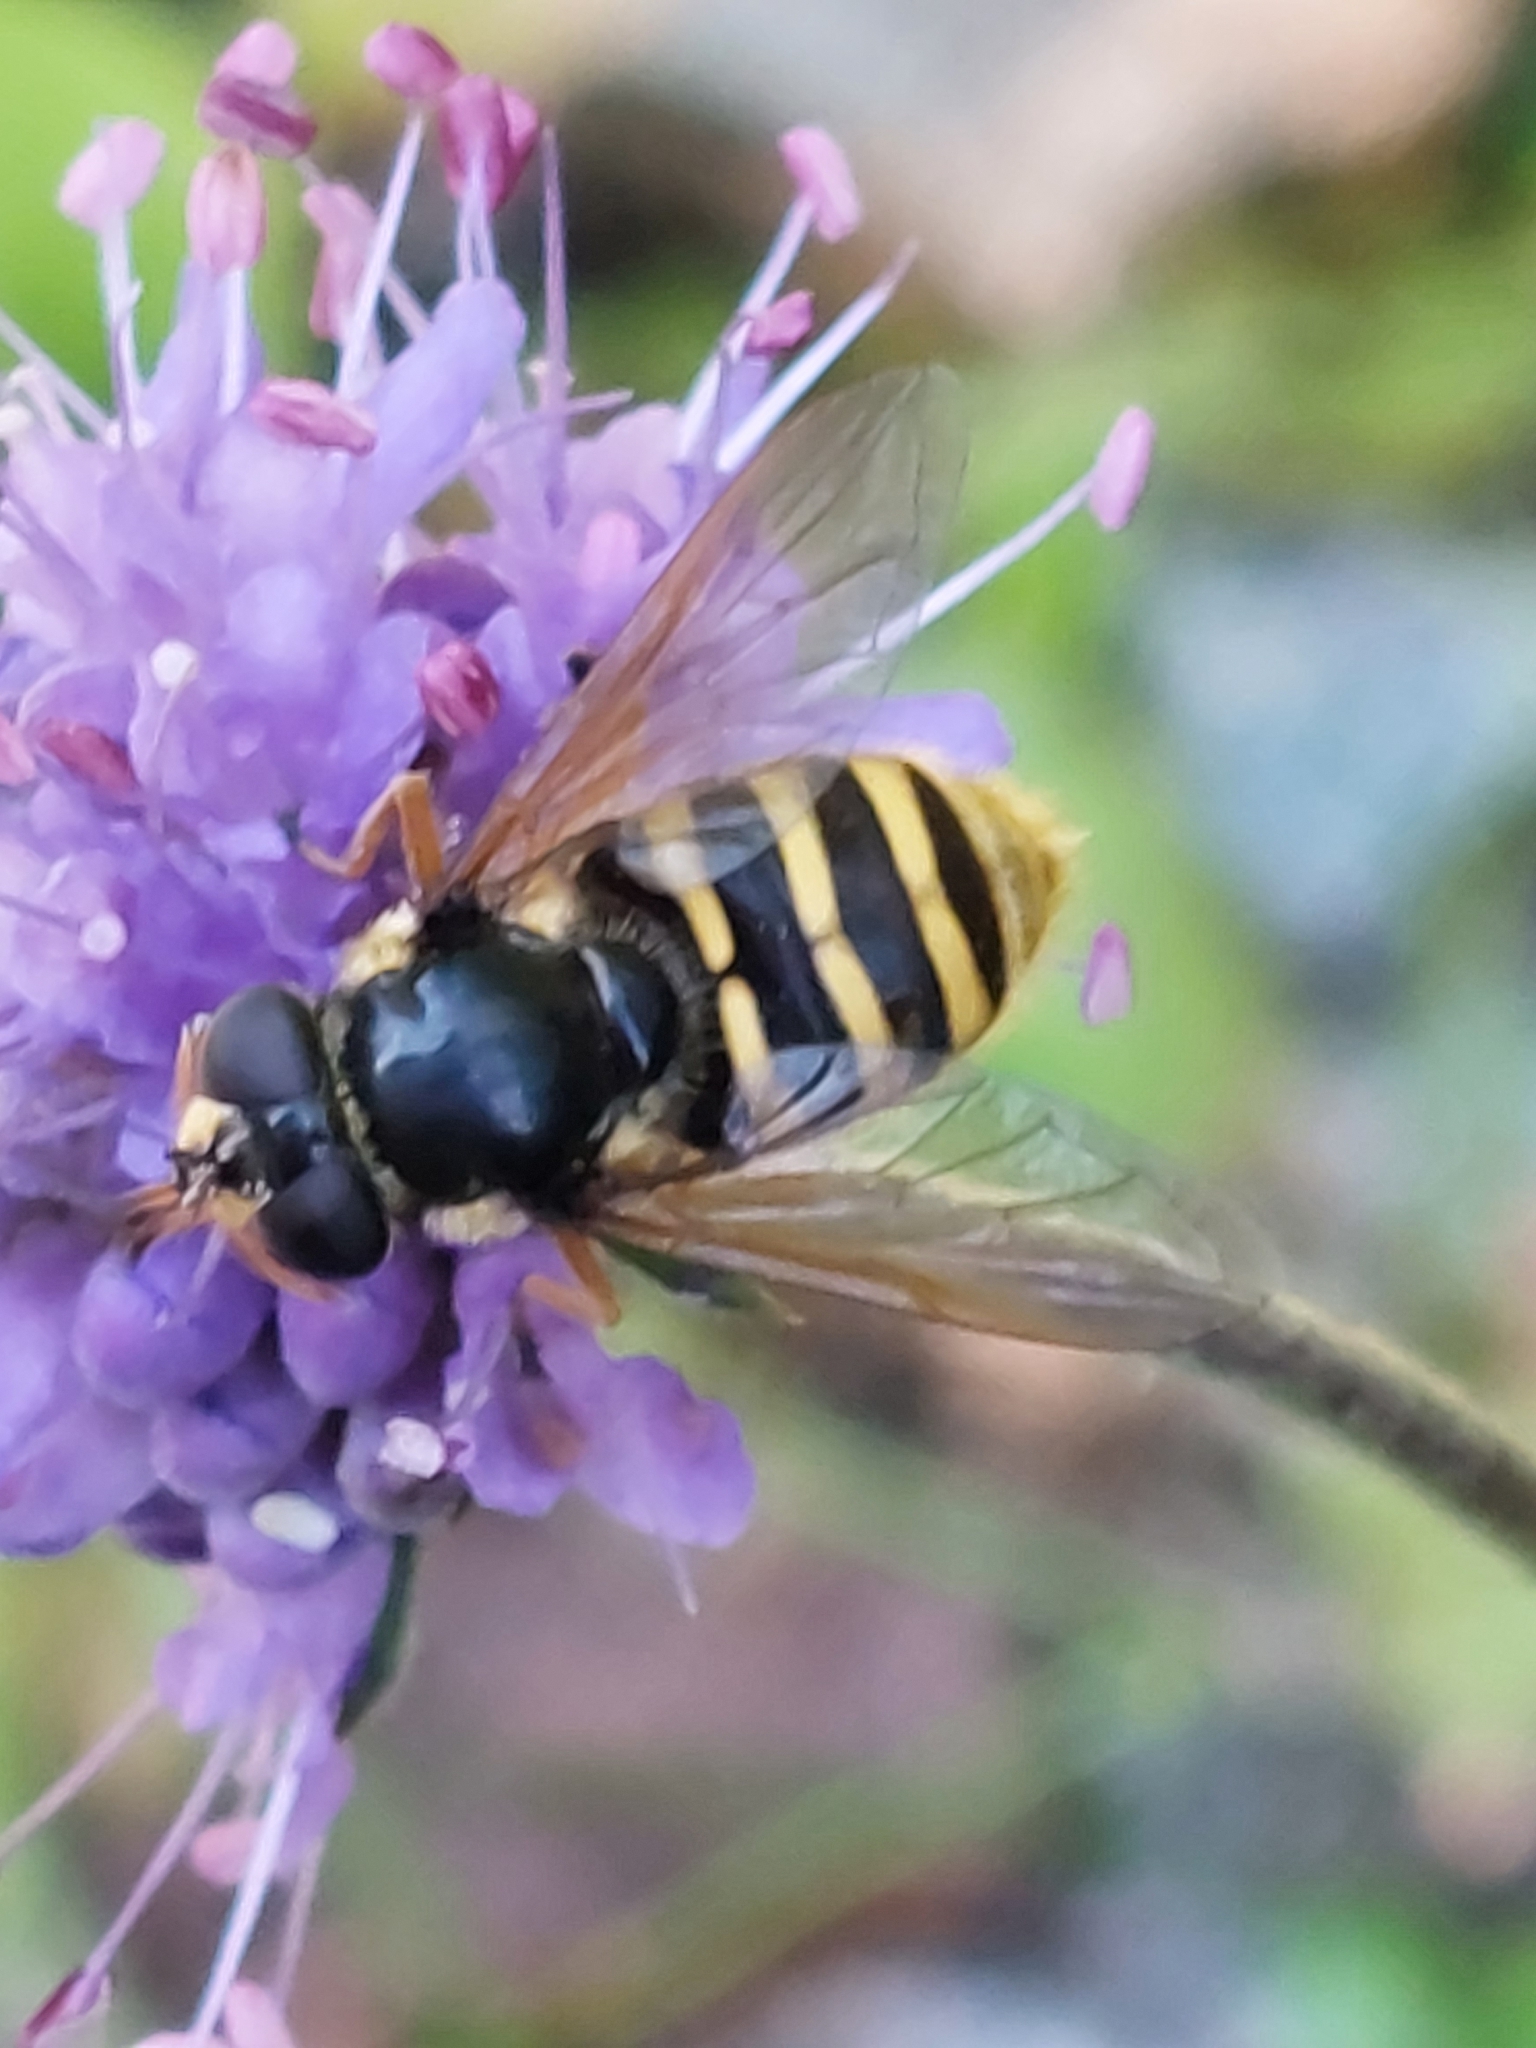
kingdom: Animalia
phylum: Arthropoda
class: Insecta
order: Diptera
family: Syrphidae
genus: Sericomyia
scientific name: Sericomyia silentis
